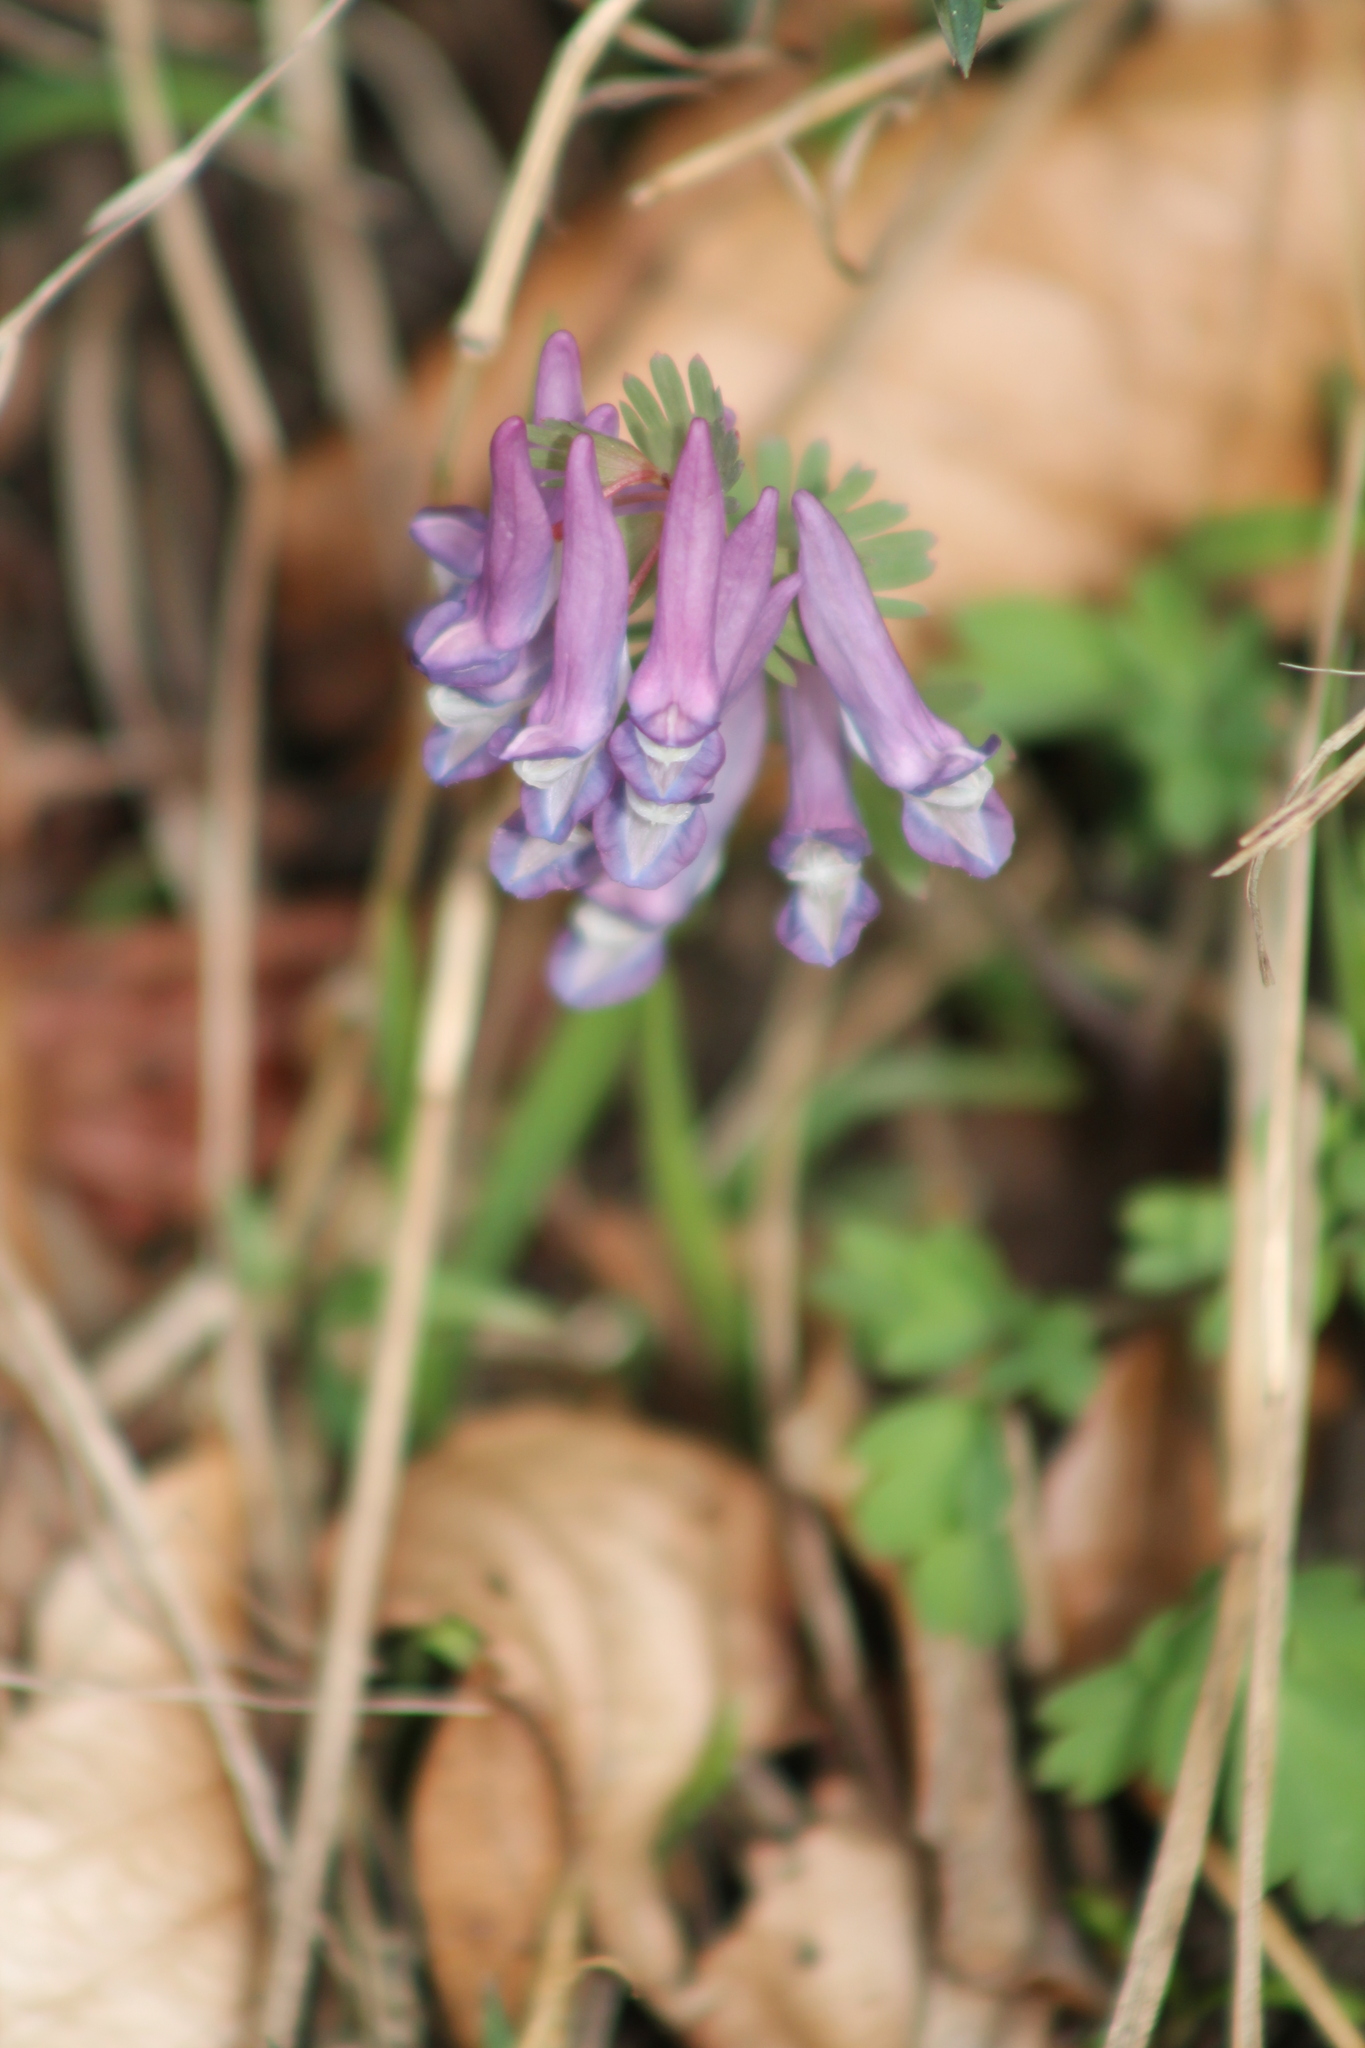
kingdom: Plantae
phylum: Tracheophyta
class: Magnoliopsida
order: Ranunculales
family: Papaveraceae
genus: Corydalis
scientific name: Corydalis solida
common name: Bird-in-a-bush
